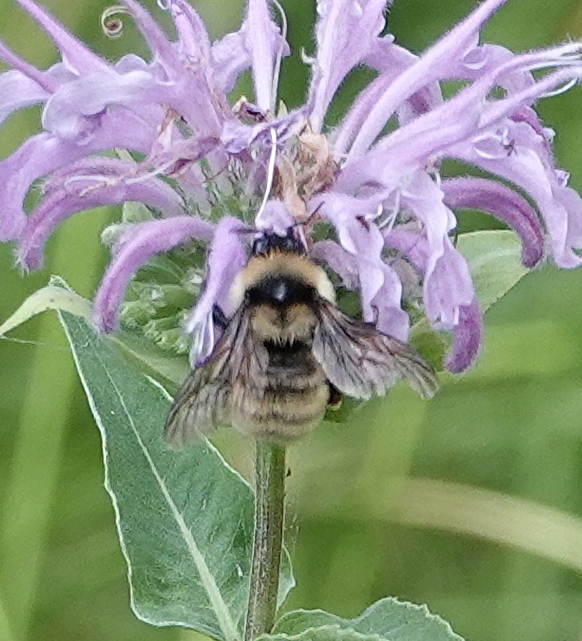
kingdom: Animalia
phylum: Arthropoda
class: Insecta
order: Hymenoptera
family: Apidae
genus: Bombus
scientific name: Bombus fervidus
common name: Yellow bumble bee
